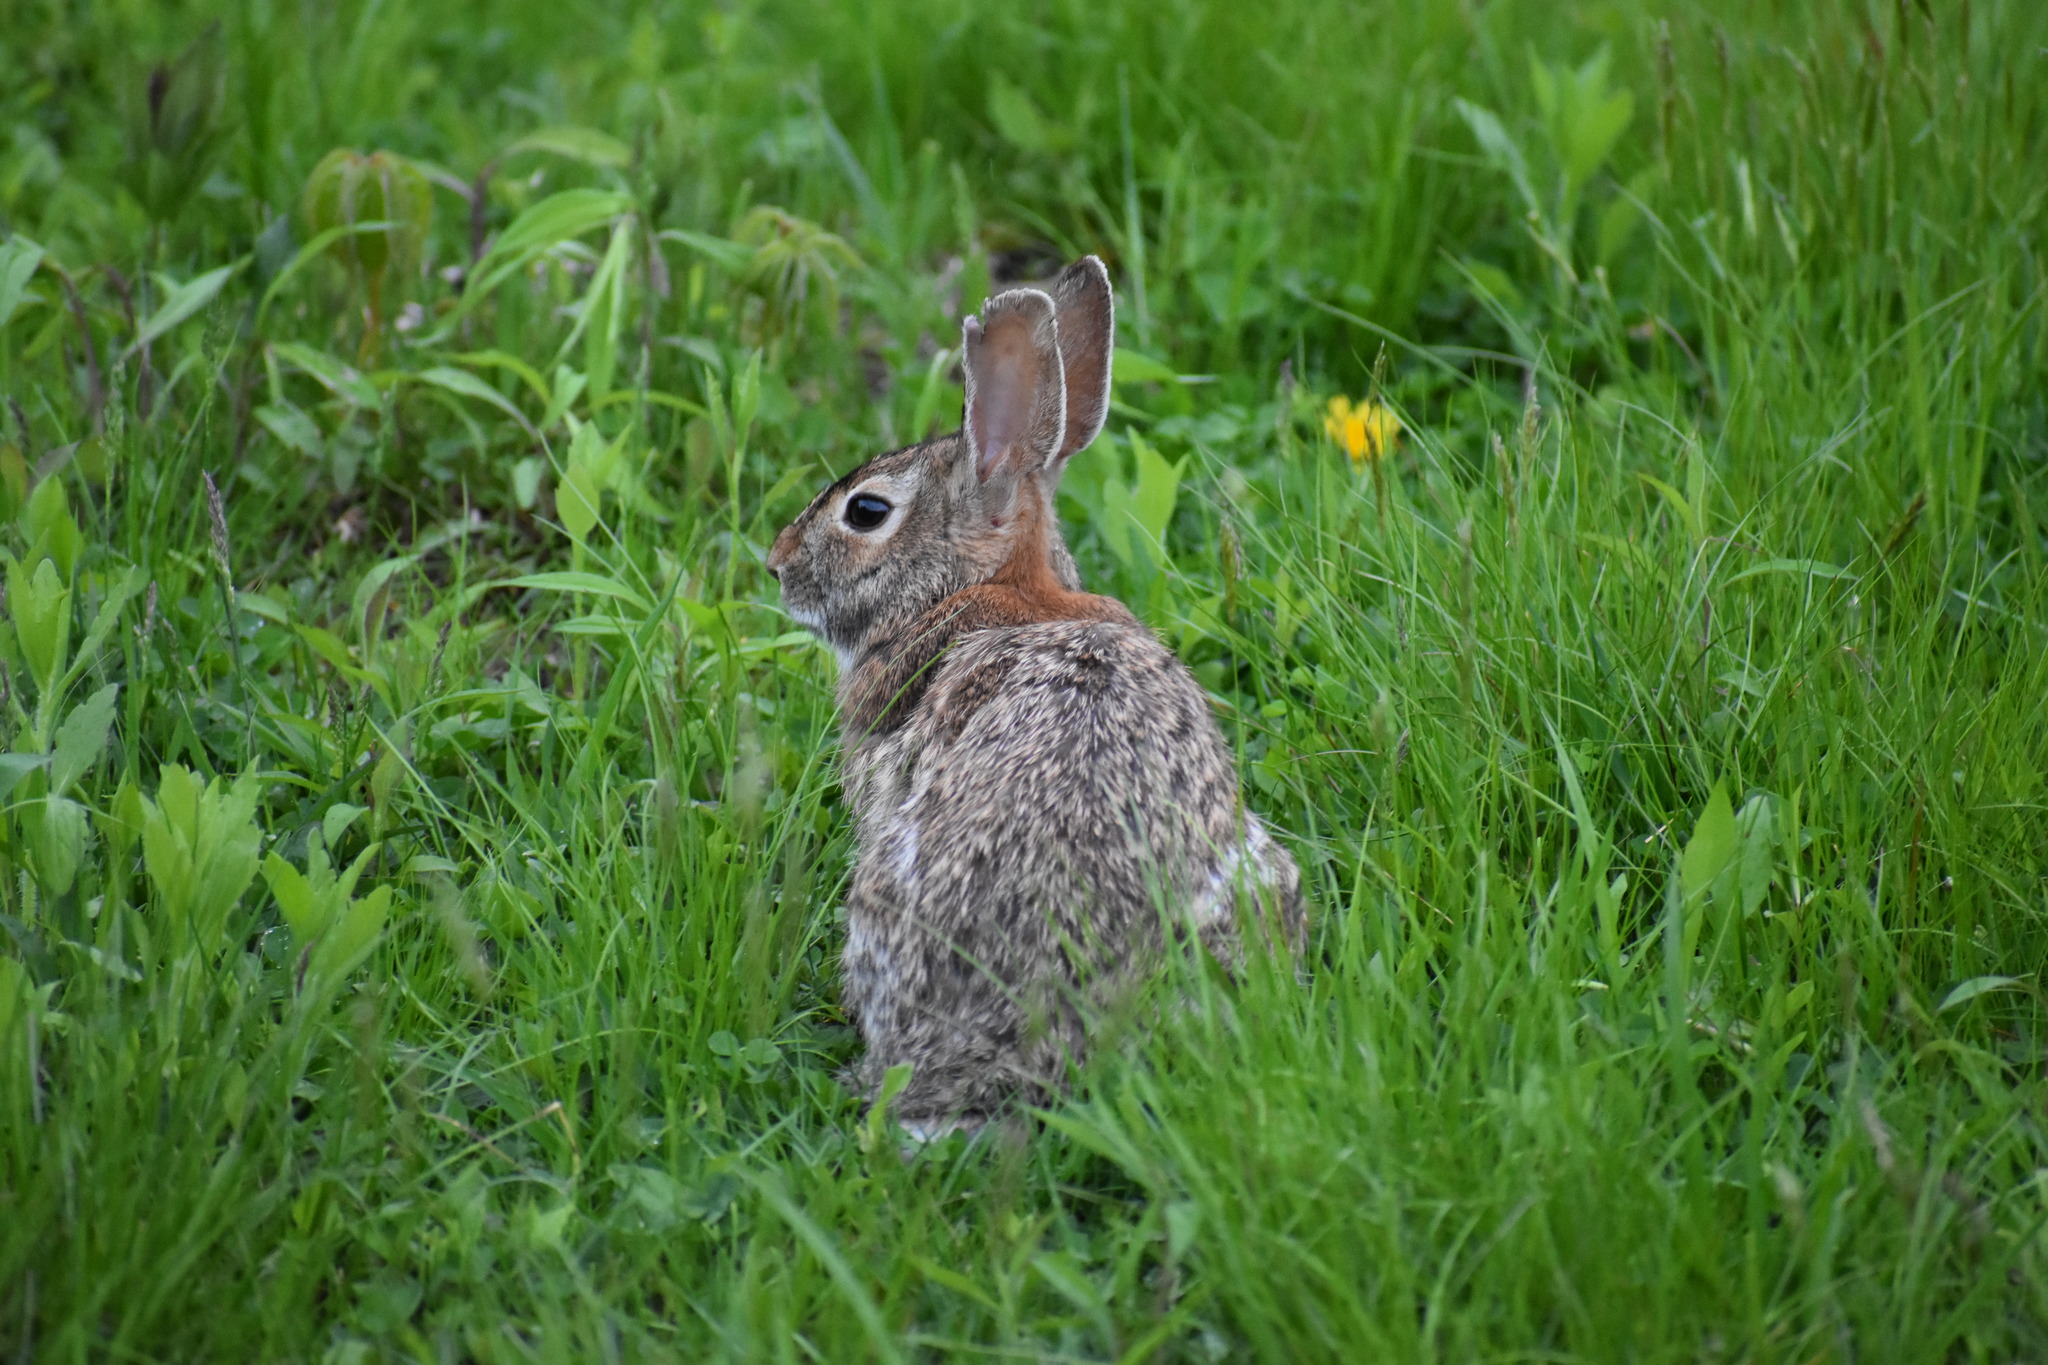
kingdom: Animalia
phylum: Chordata
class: Mammalia
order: Lagomorpha
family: Leporidae
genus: Sylvilagus
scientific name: Sylvilagus floridanus
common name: Eastern cottontail
